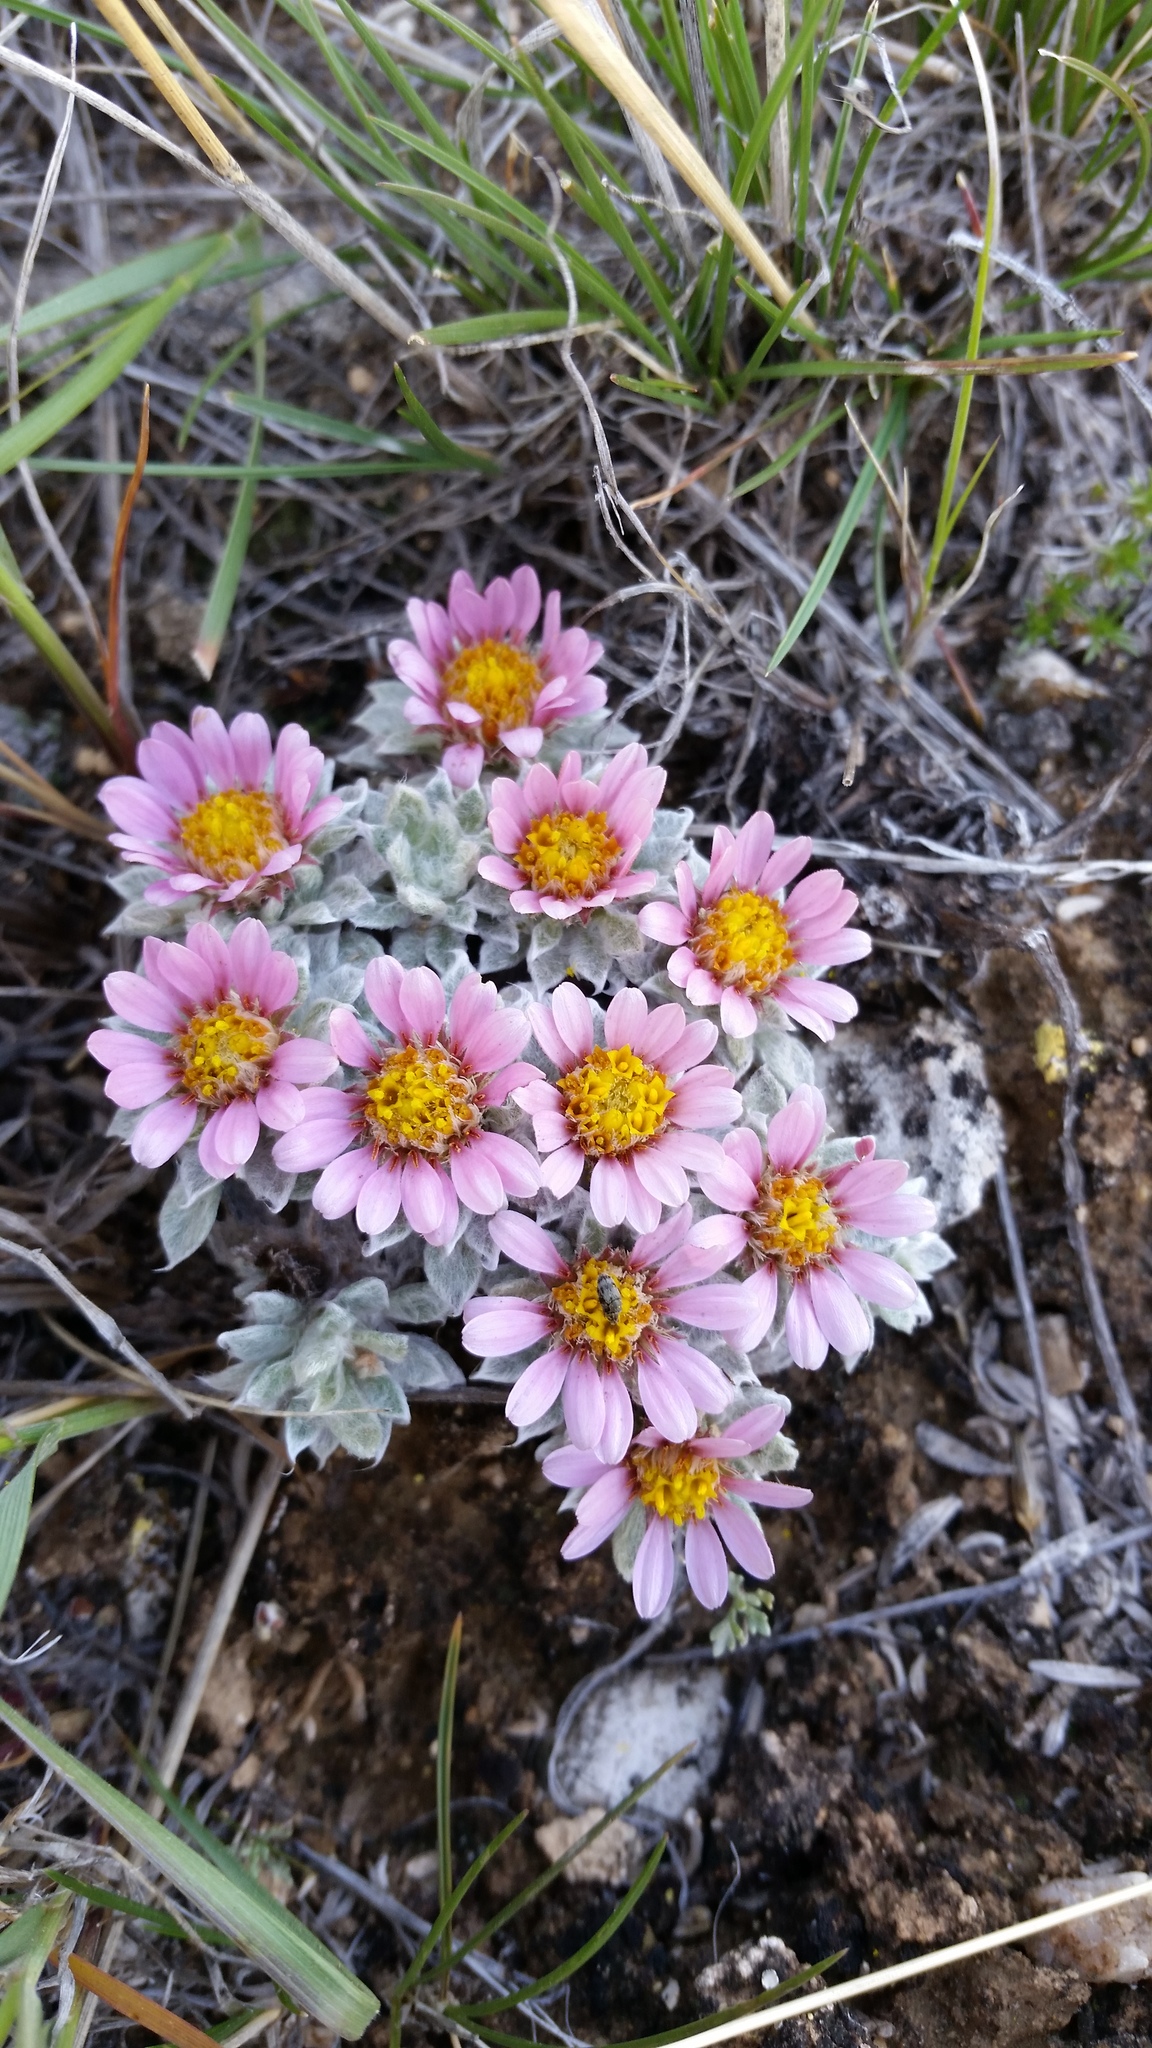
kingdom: Plantae
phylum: Tracheophyta
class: Magnoliopsida
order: Asterales
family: Asteraceae
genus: Townsendia
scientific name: Townsendia spathulata
